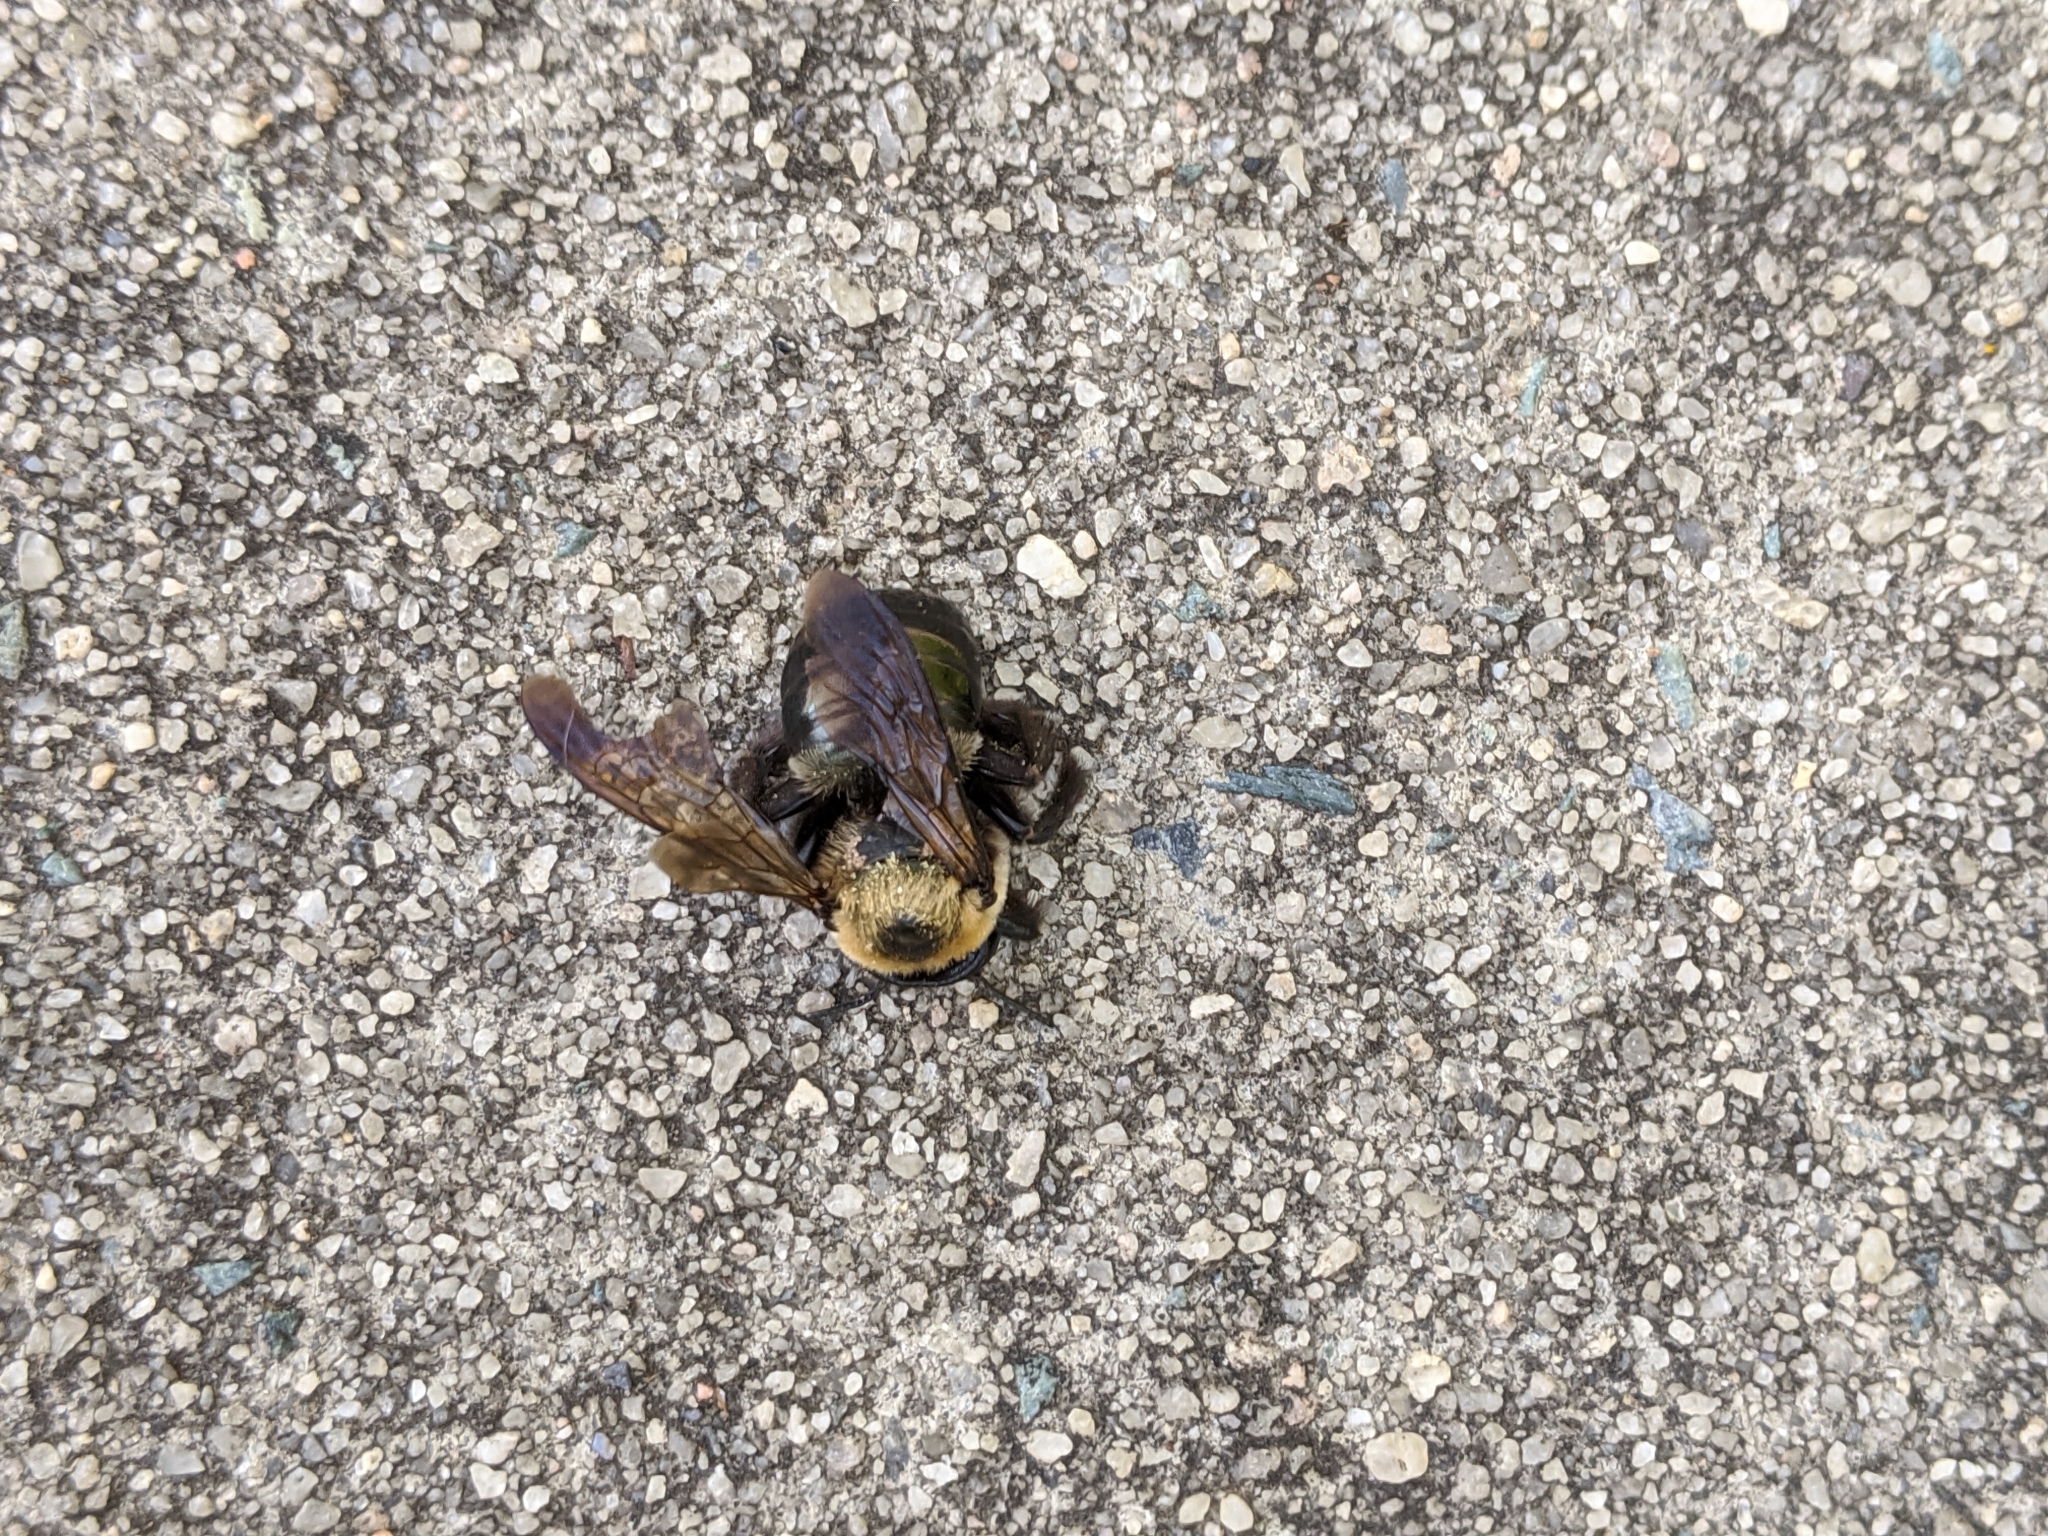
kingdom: Animalia
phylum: Arthropoda
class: Insecta
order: Hymenoptera
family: Apidae
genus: Xylocopa
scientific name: Xylocopa virginica
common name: Carpenter bee
